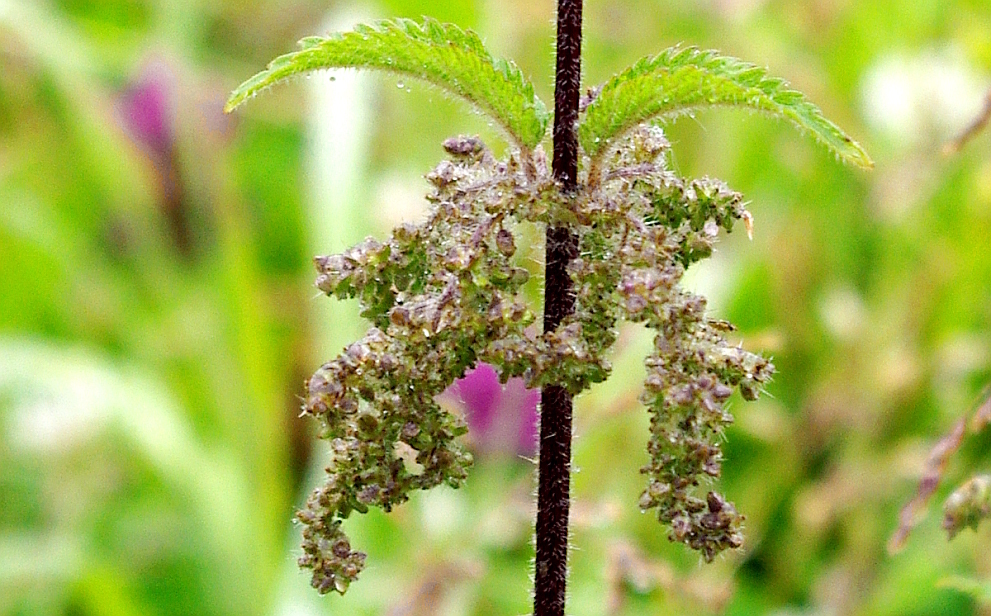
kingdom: Plantae
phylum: Tracheophyta
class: Magnoliopsida
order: Rosales
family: Urticaceae
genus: Urtica
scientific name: Urtica dioica
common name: Common nettle
